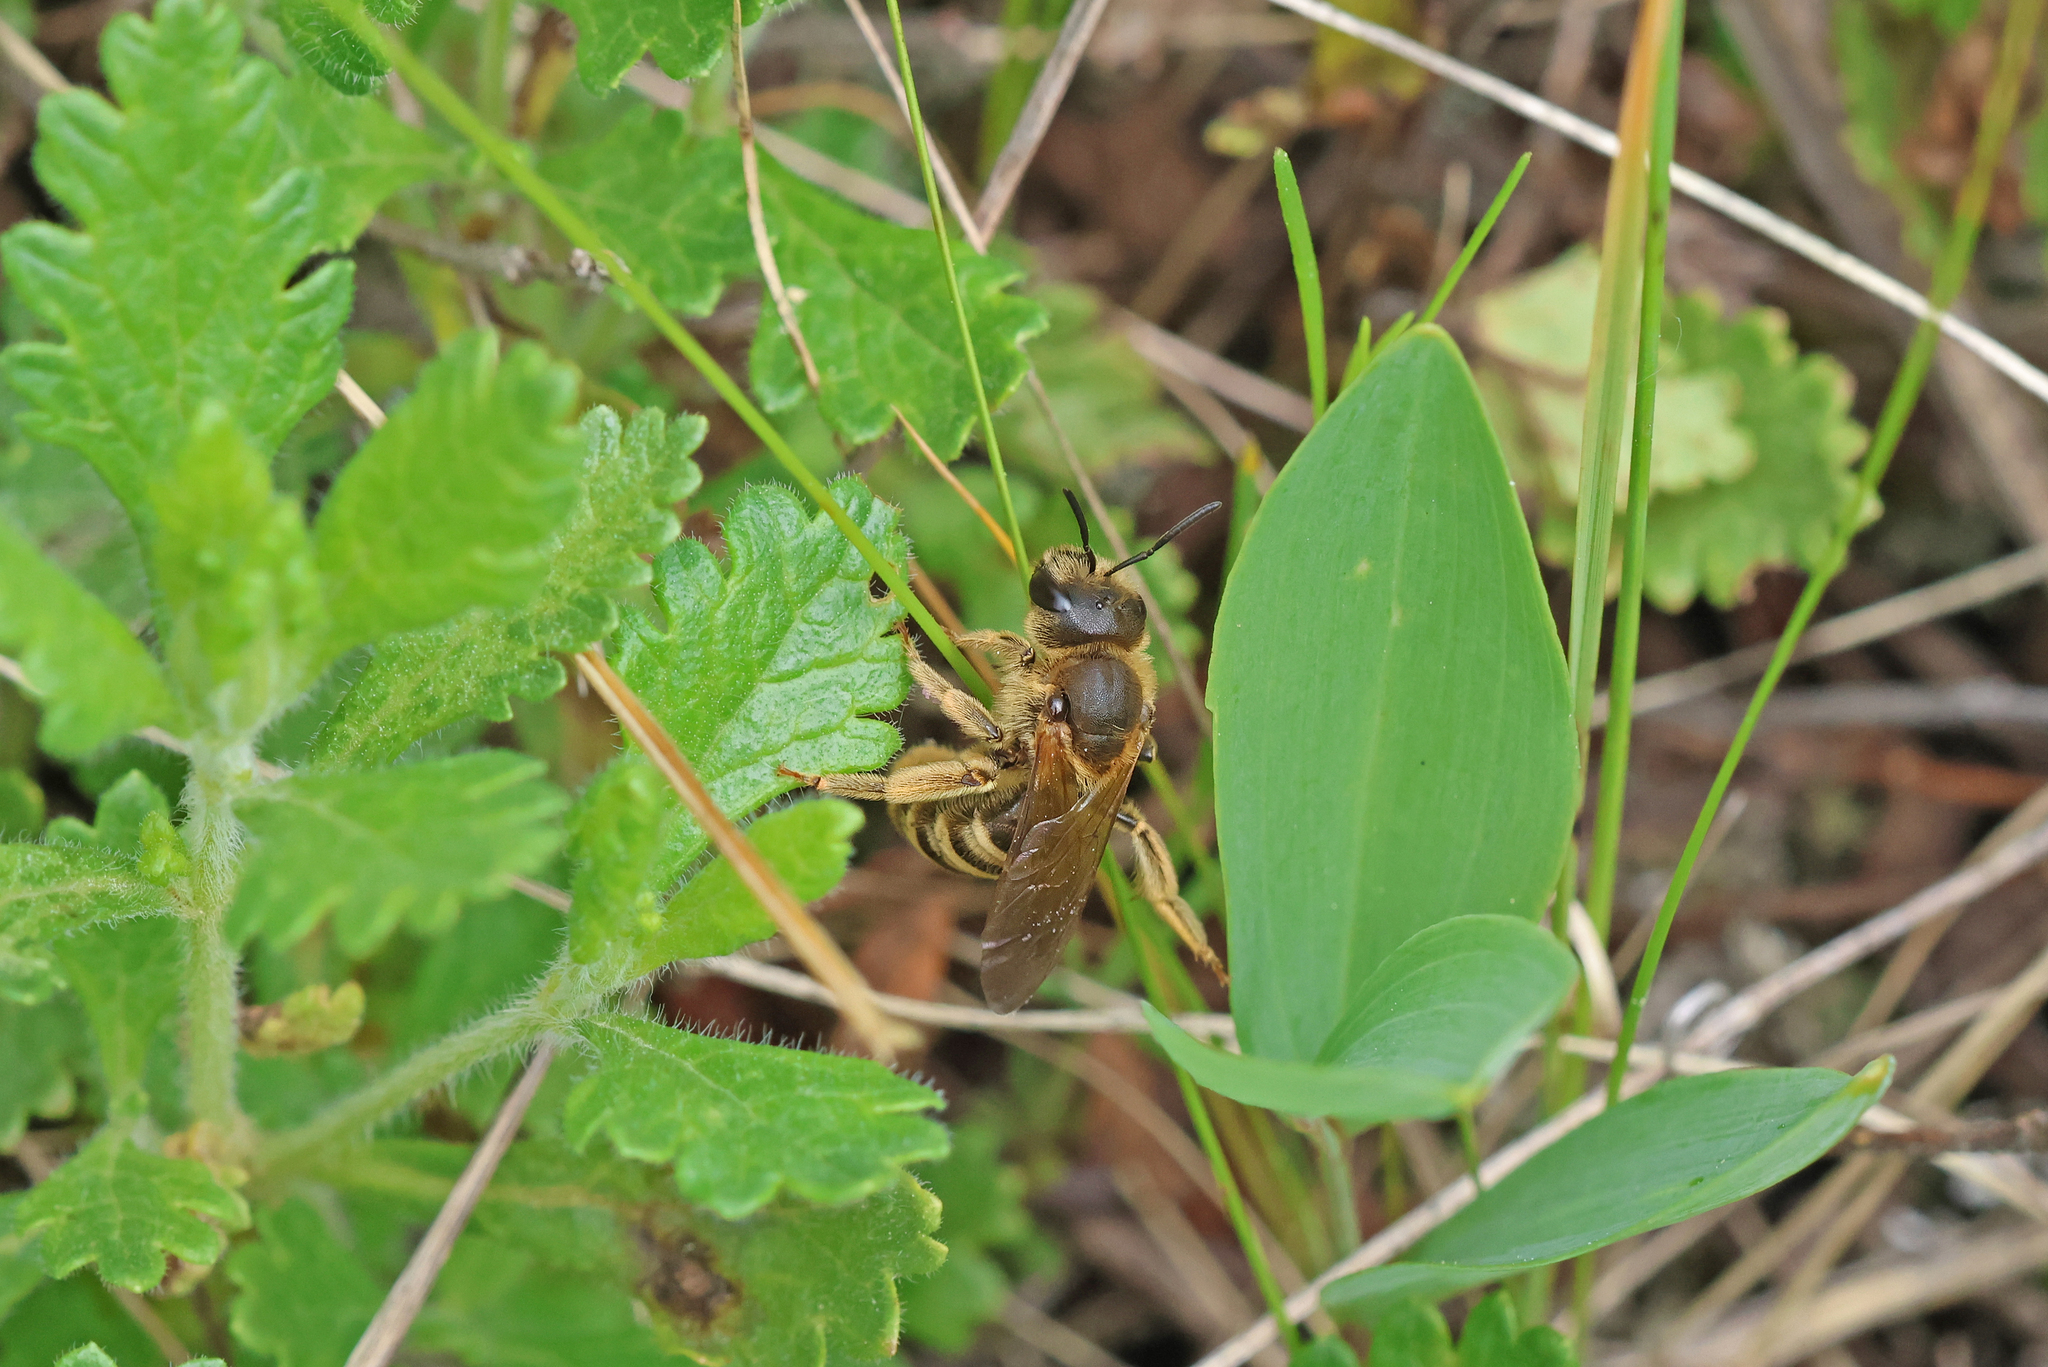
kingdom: Animalia
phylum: Arthropoda
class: Insecta
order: Hymenoptera
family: Halictidae
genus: Halictus
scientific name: Halictus scabiosae
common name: Great banded furrow bee
